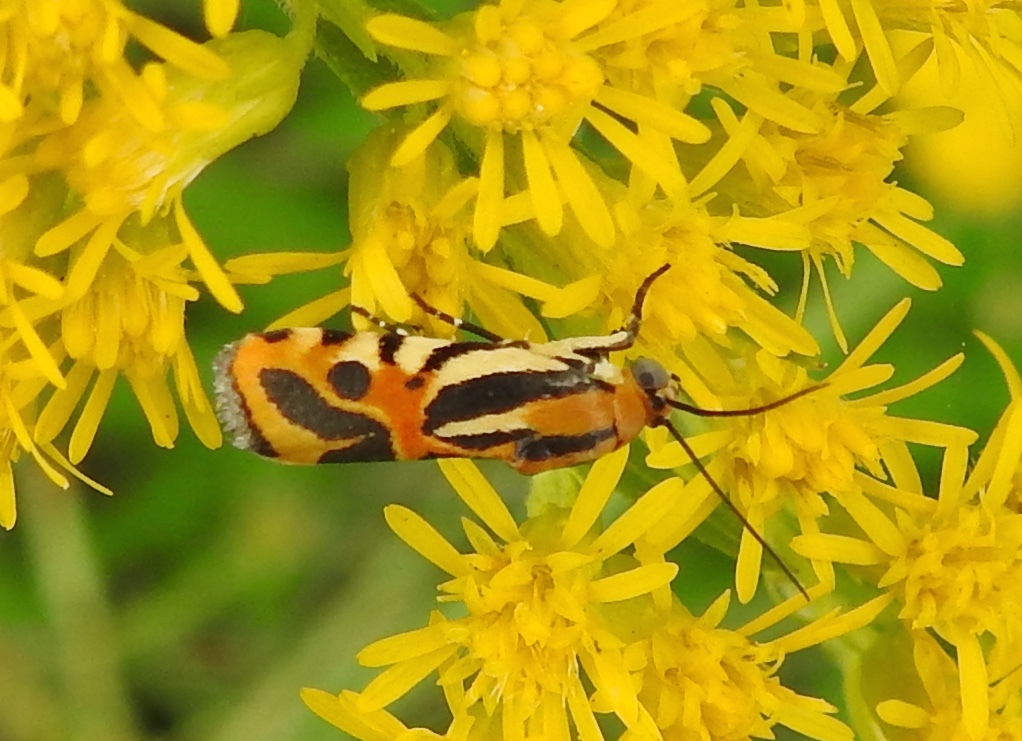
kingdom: Animalia
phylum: Arthropoda
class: Insecta
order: Lepidoptera
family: Noctuidae
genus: Acontia
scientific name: Acontia onagrus
